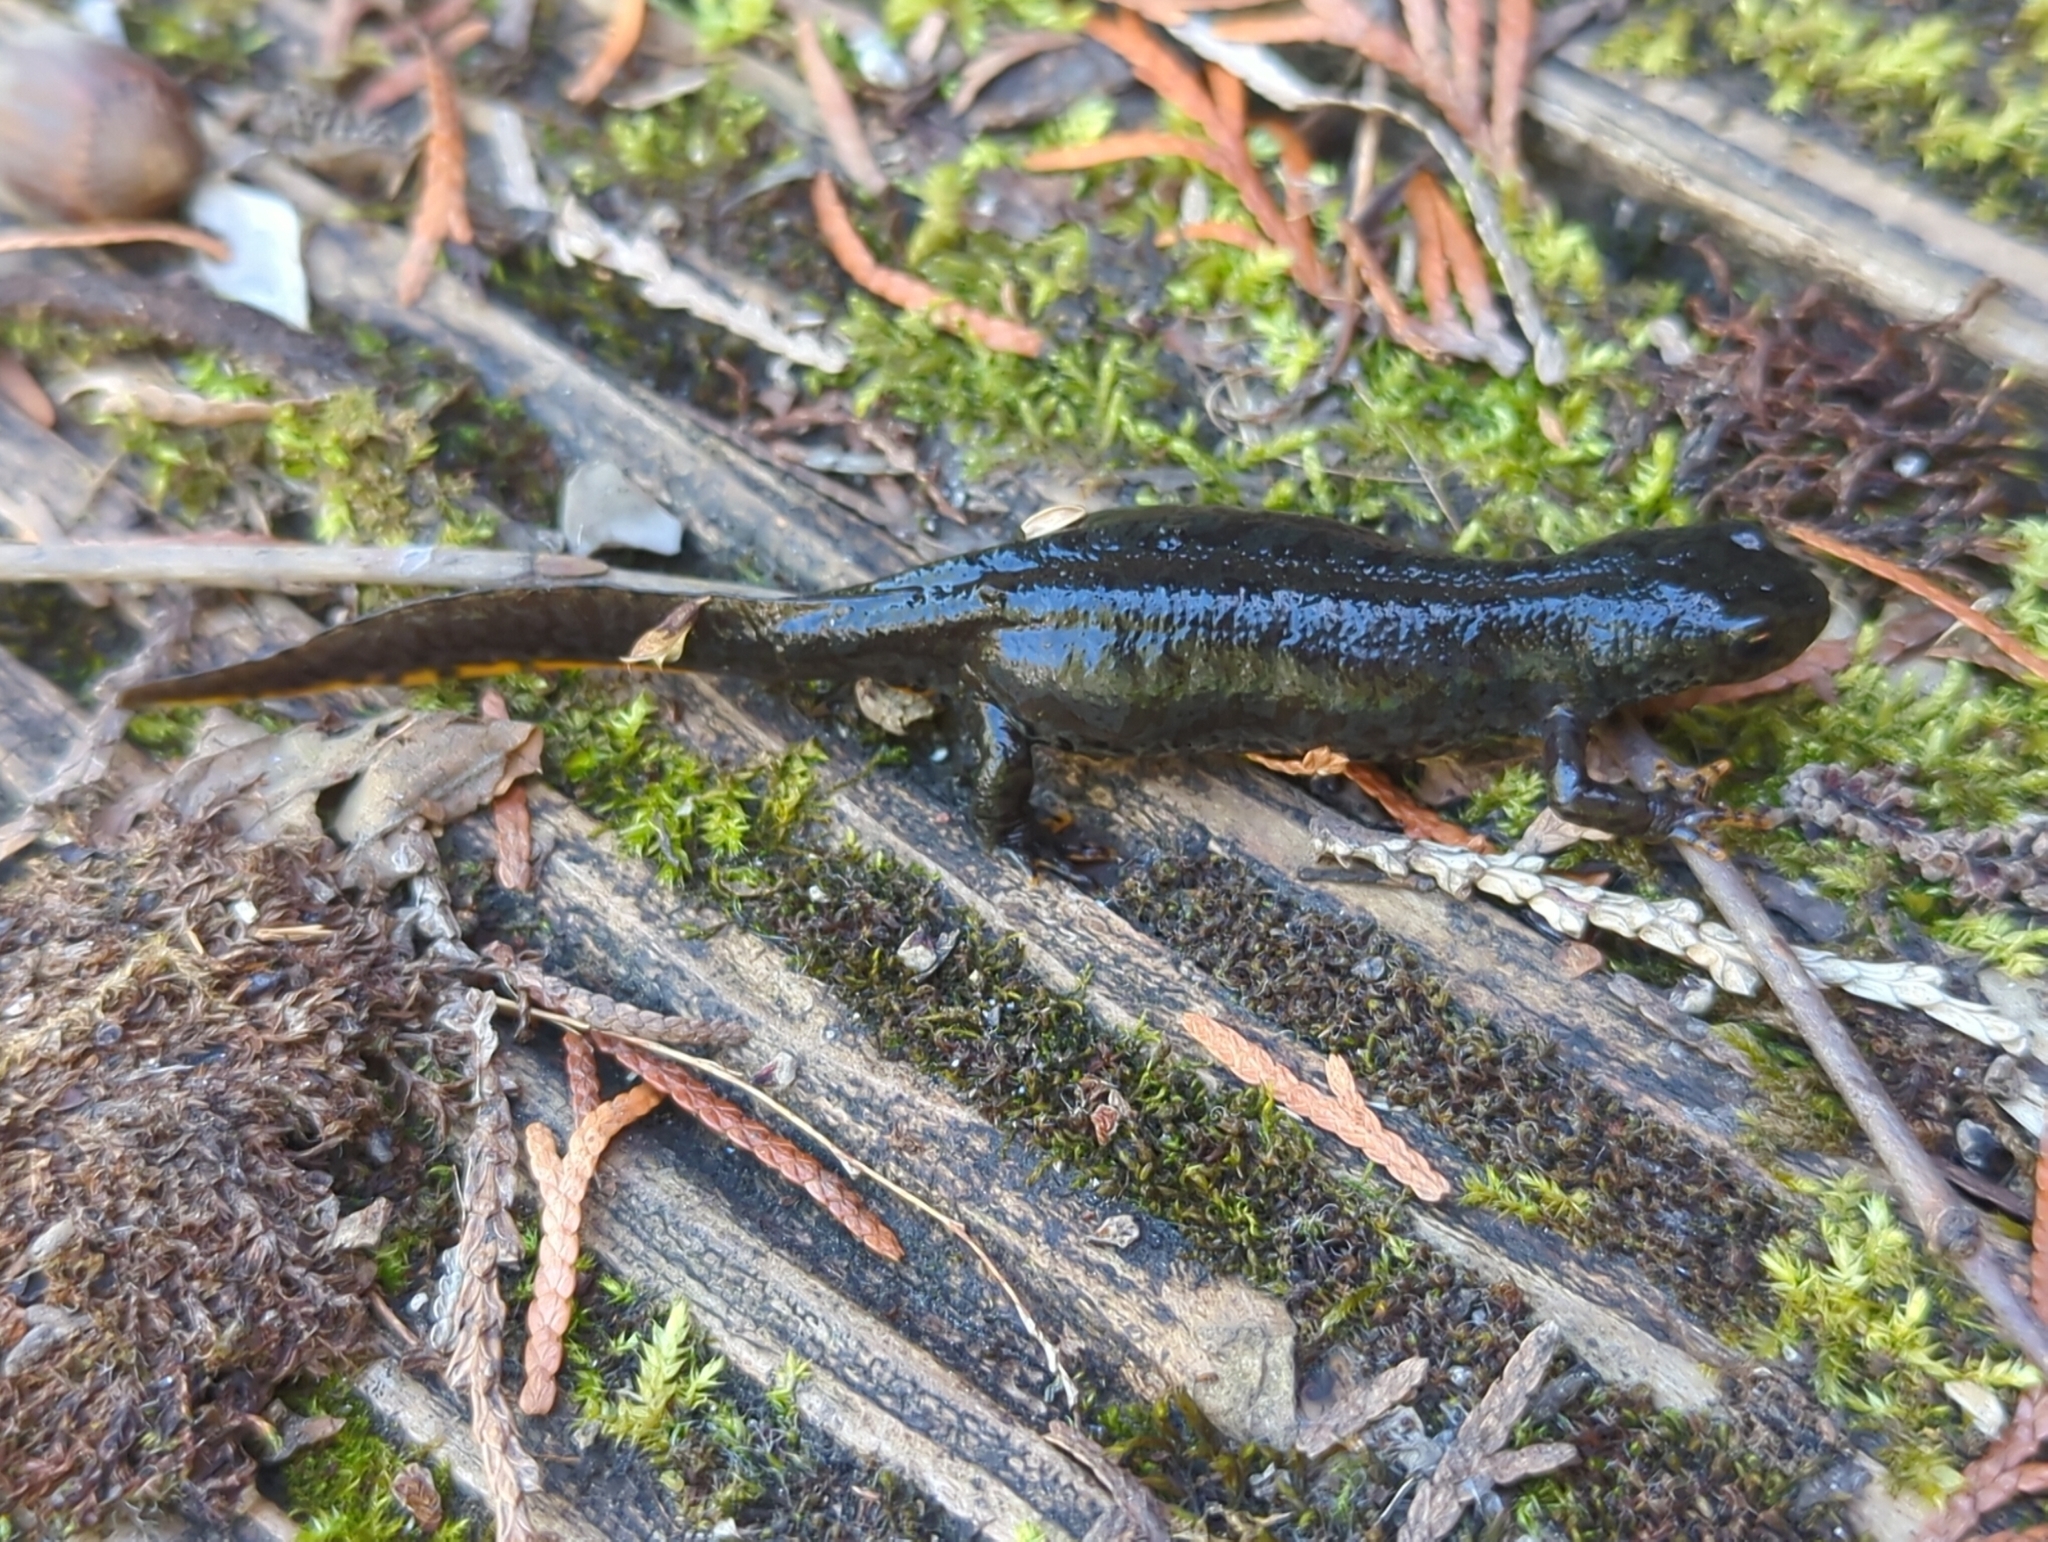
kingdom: Animalia
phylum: Chordata
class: Amphibia
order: Caudata
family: Salamandridae
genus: Ichthyosaura
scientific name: Ichthyosaura alpestris
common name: Alpine newt
